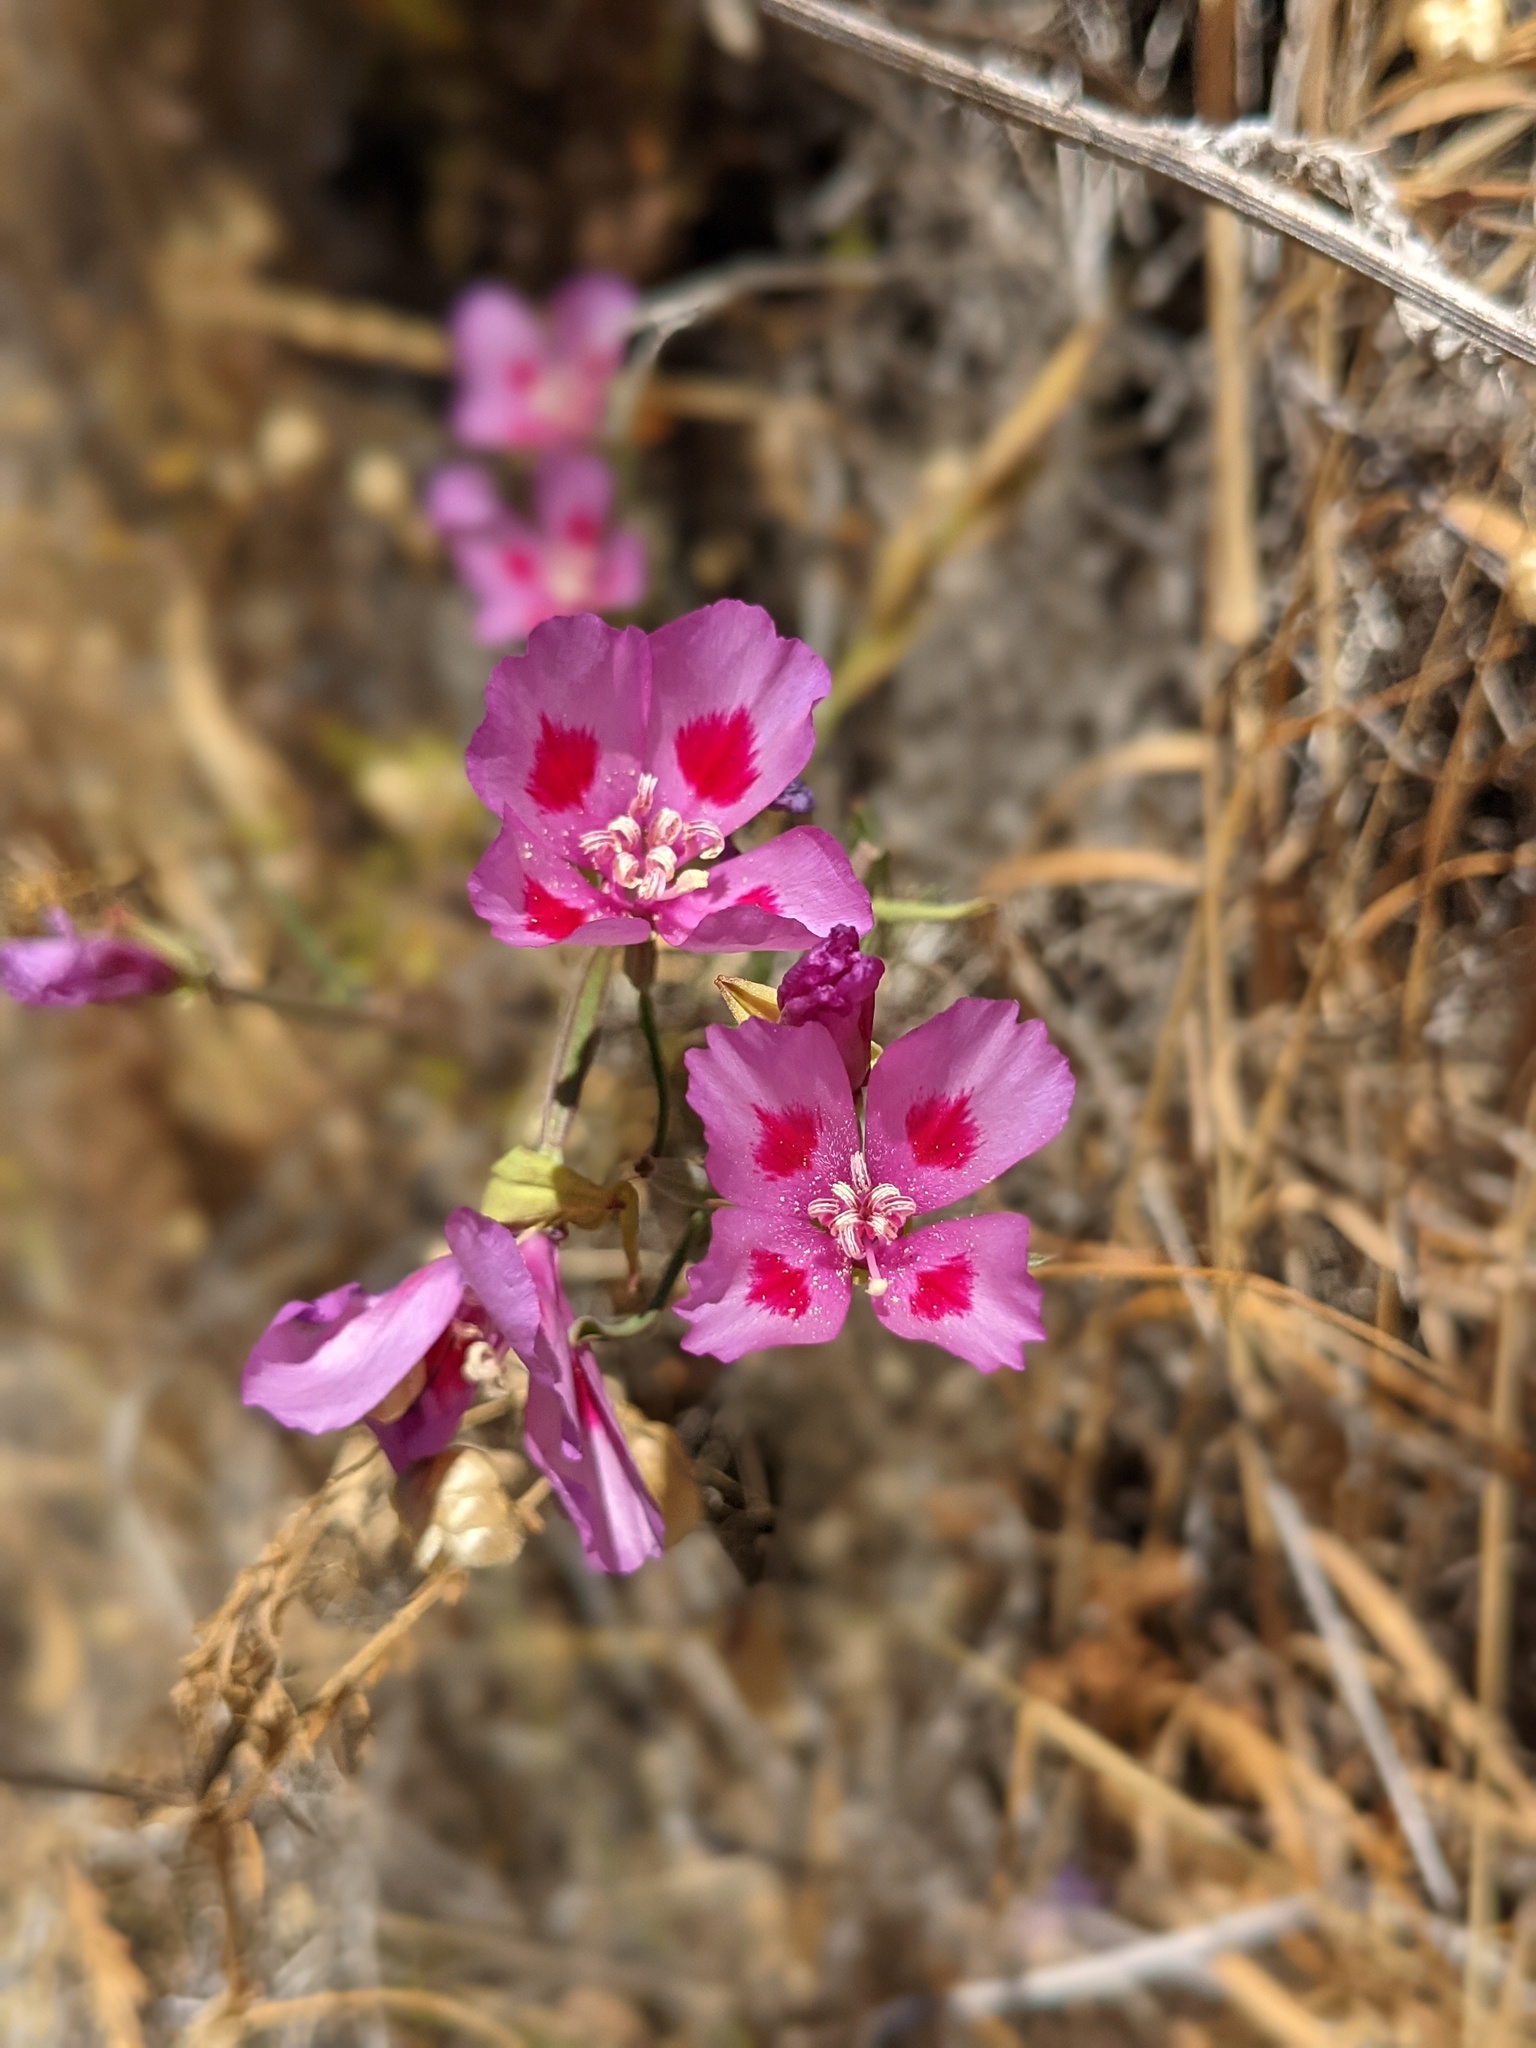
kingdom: Plantae
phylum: Tracheophyta
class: Magnoliopsida
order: Myrtales
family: Onagraceae
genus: Clarkia
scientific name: Clarkia amoena
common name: Godetia
